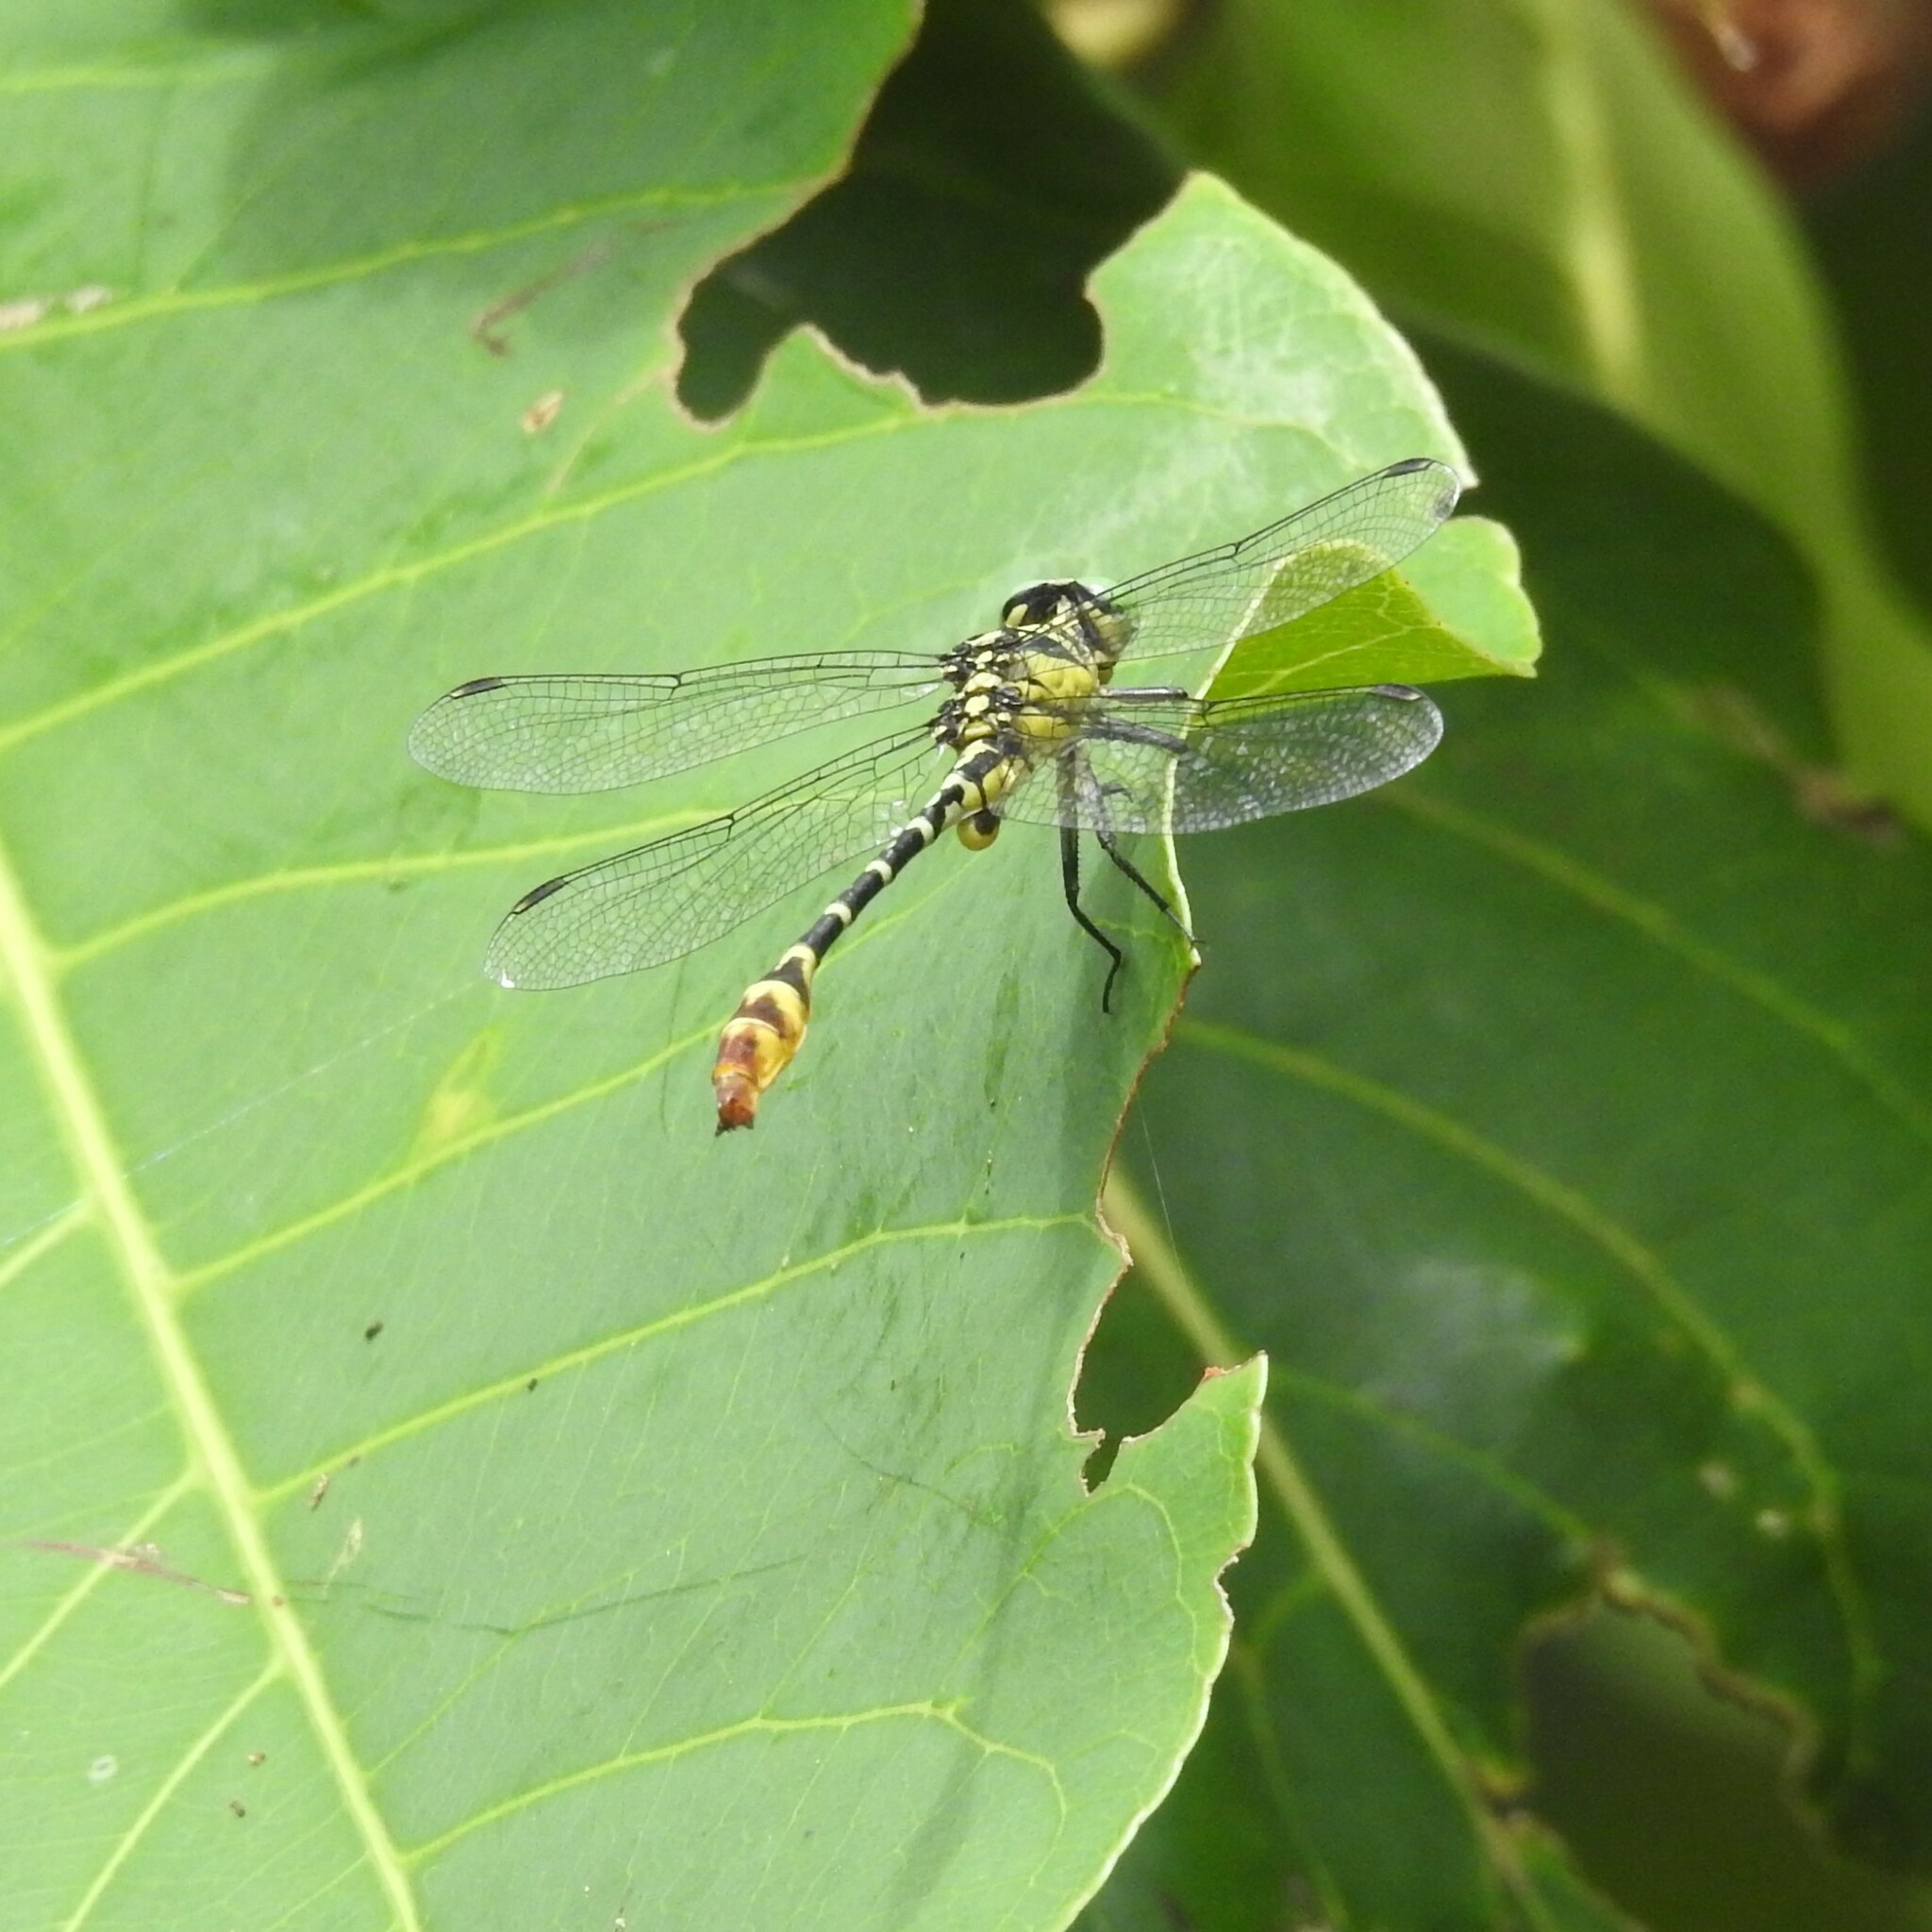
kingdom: Animalia
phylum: Arthropoda
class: Insecta
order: Odonata
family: Gomphidae
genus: Cyclogomphus
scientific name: Cyclogomphus heterostylus
